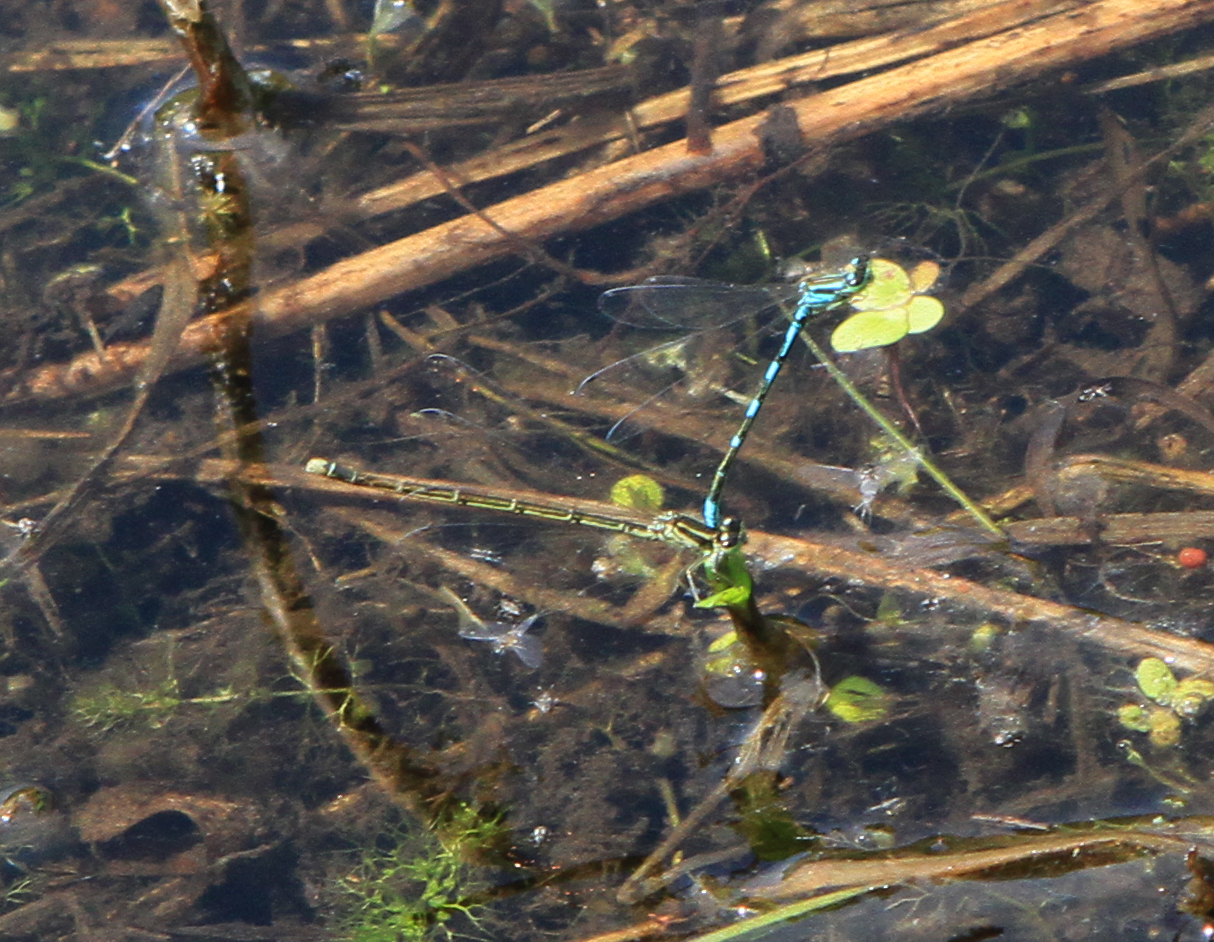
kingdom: Animalia
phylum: Arthropoda
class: Insecta
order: Odonata
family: Coenagrionidae
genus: Coenagrion
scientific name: Coenagrion johanssoni
